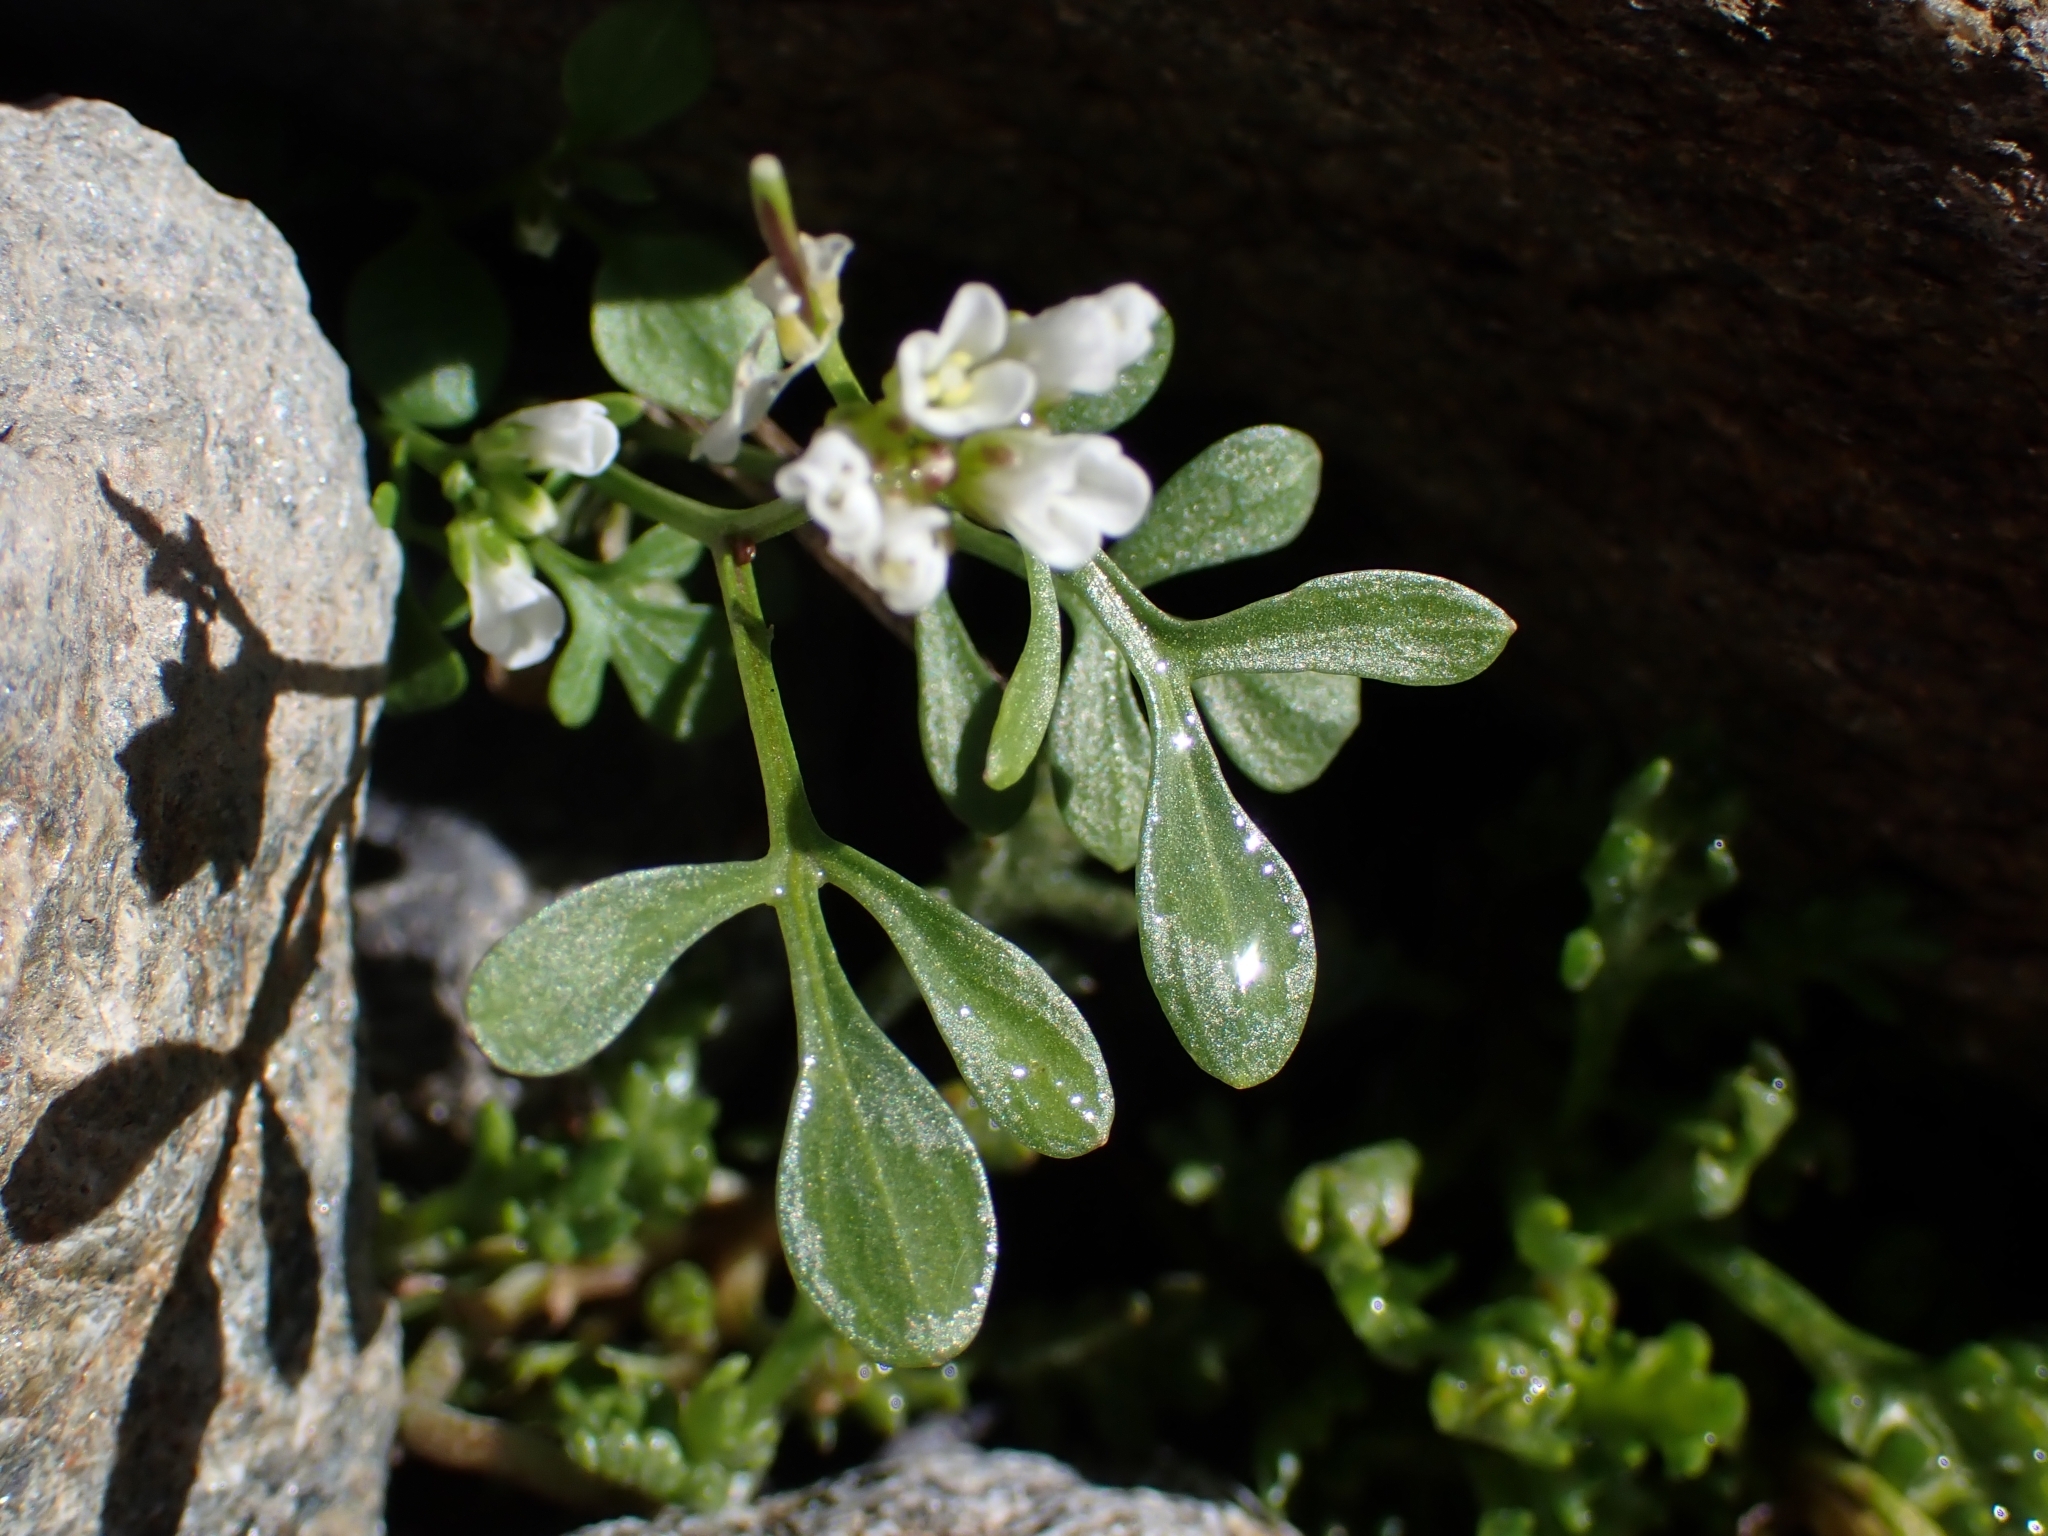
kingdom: Plantae
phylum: Tracheophyta
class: Magnoliopsida
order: Brassicales
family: Brassicaceae
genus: Cardamine
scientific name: Cardamine resedifolia
